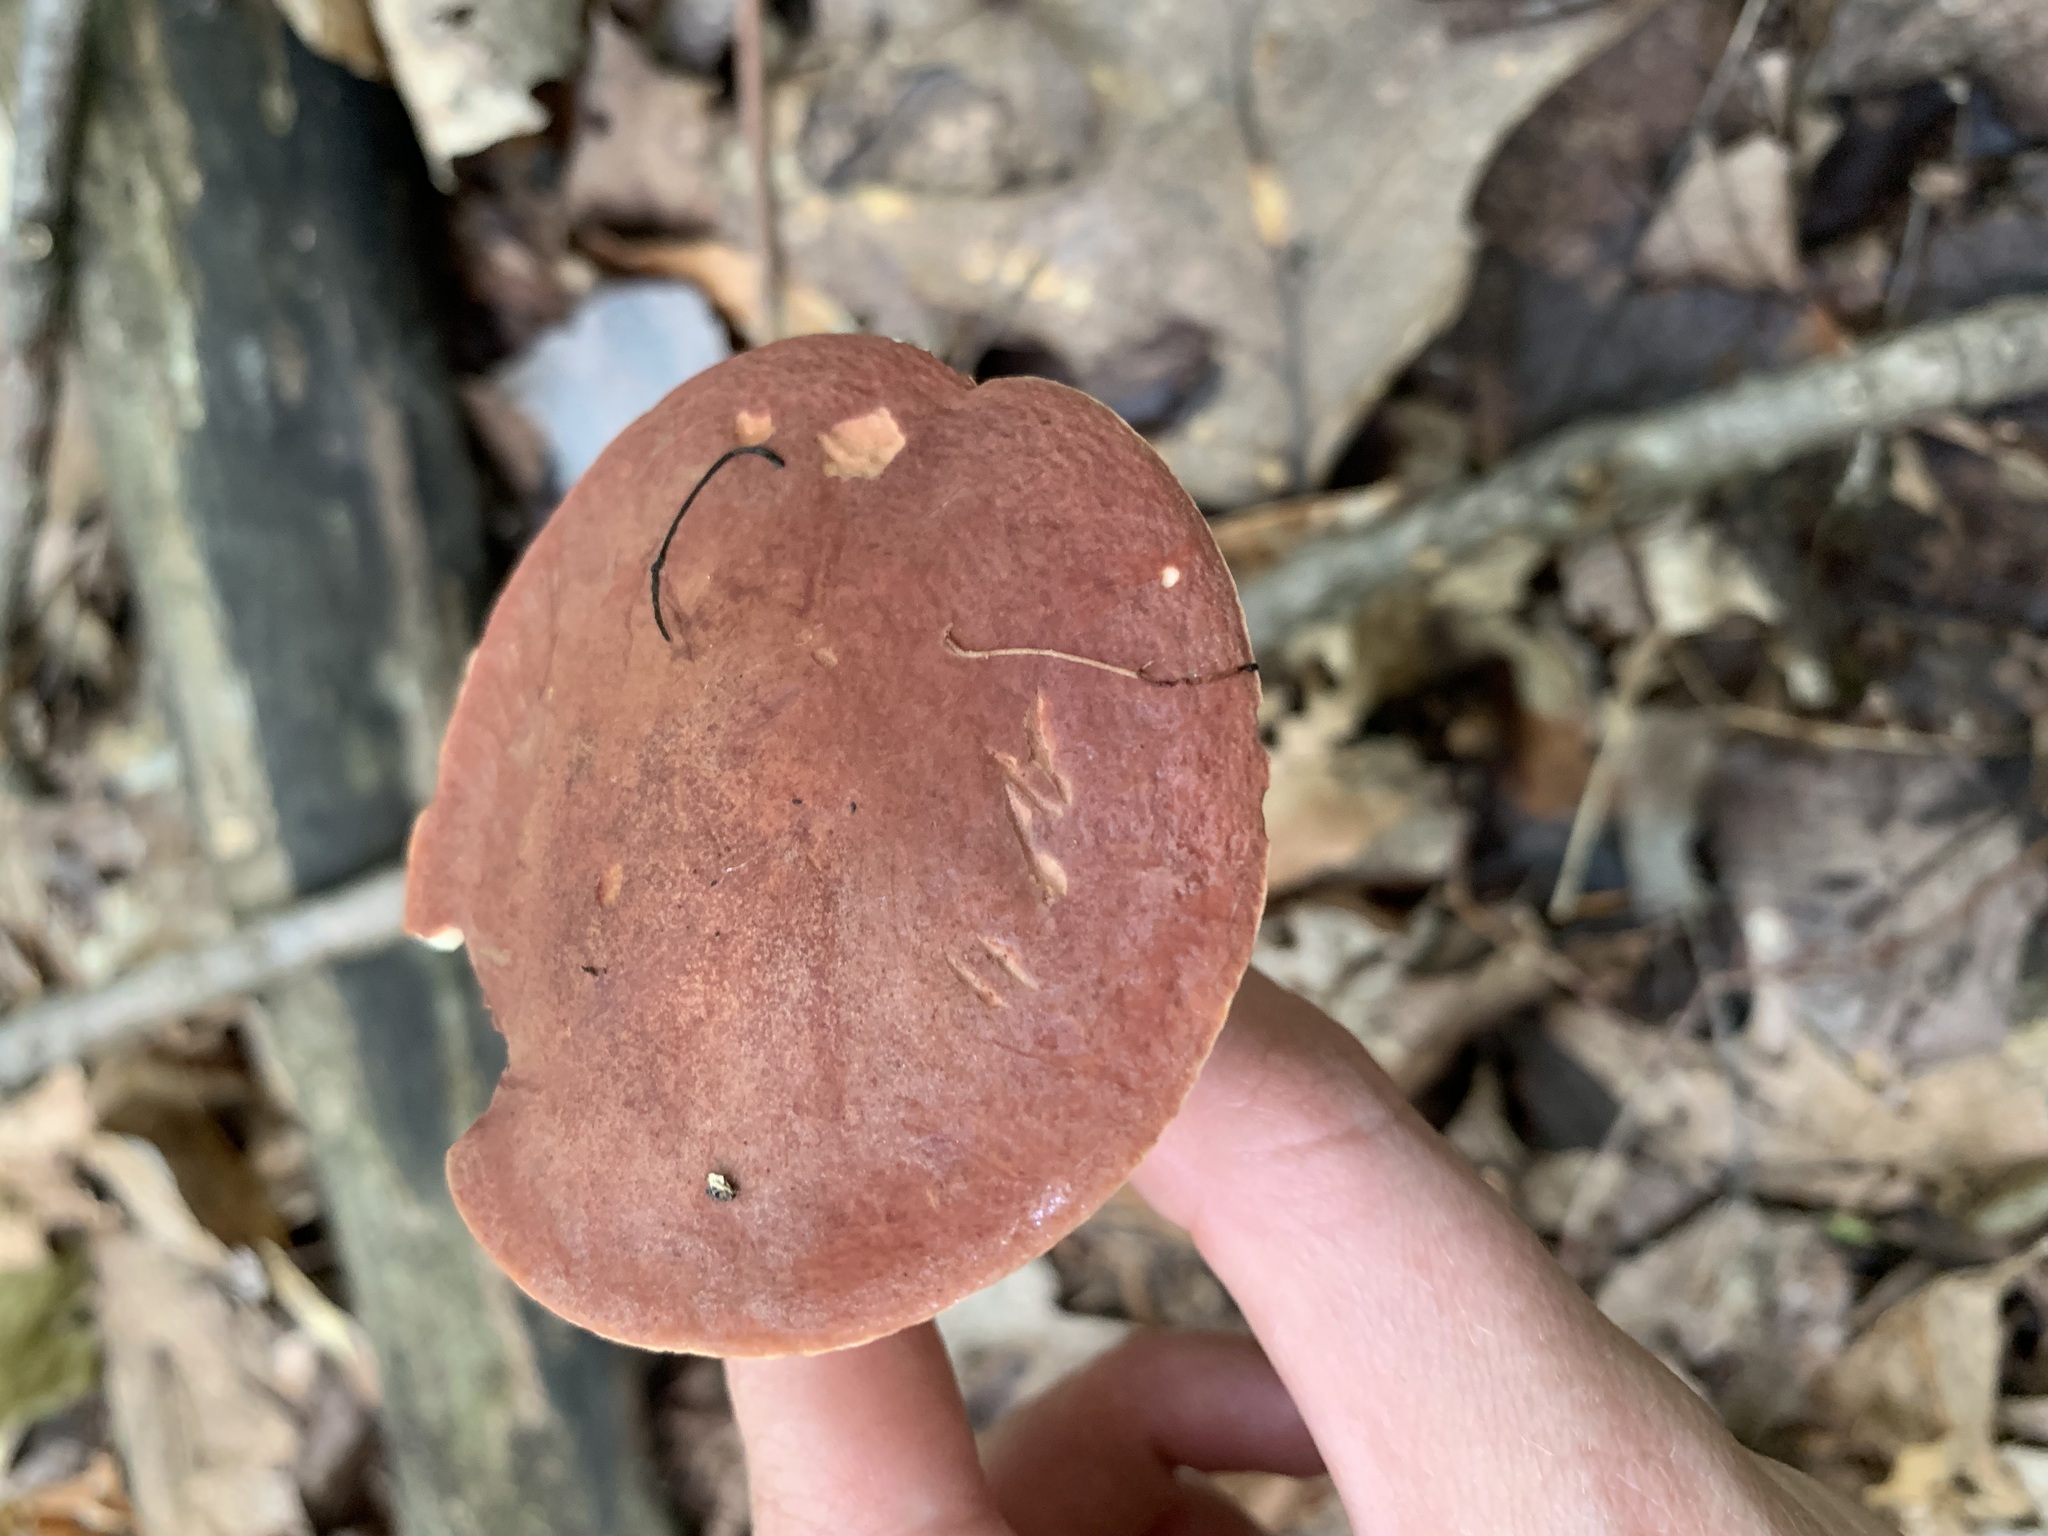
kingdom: Fungi
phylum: Basidiomycota
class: Agaricomycetes
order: Boletales
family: Boletaceae
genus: Xanthoconium
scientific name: Xanthoconium purpureum
